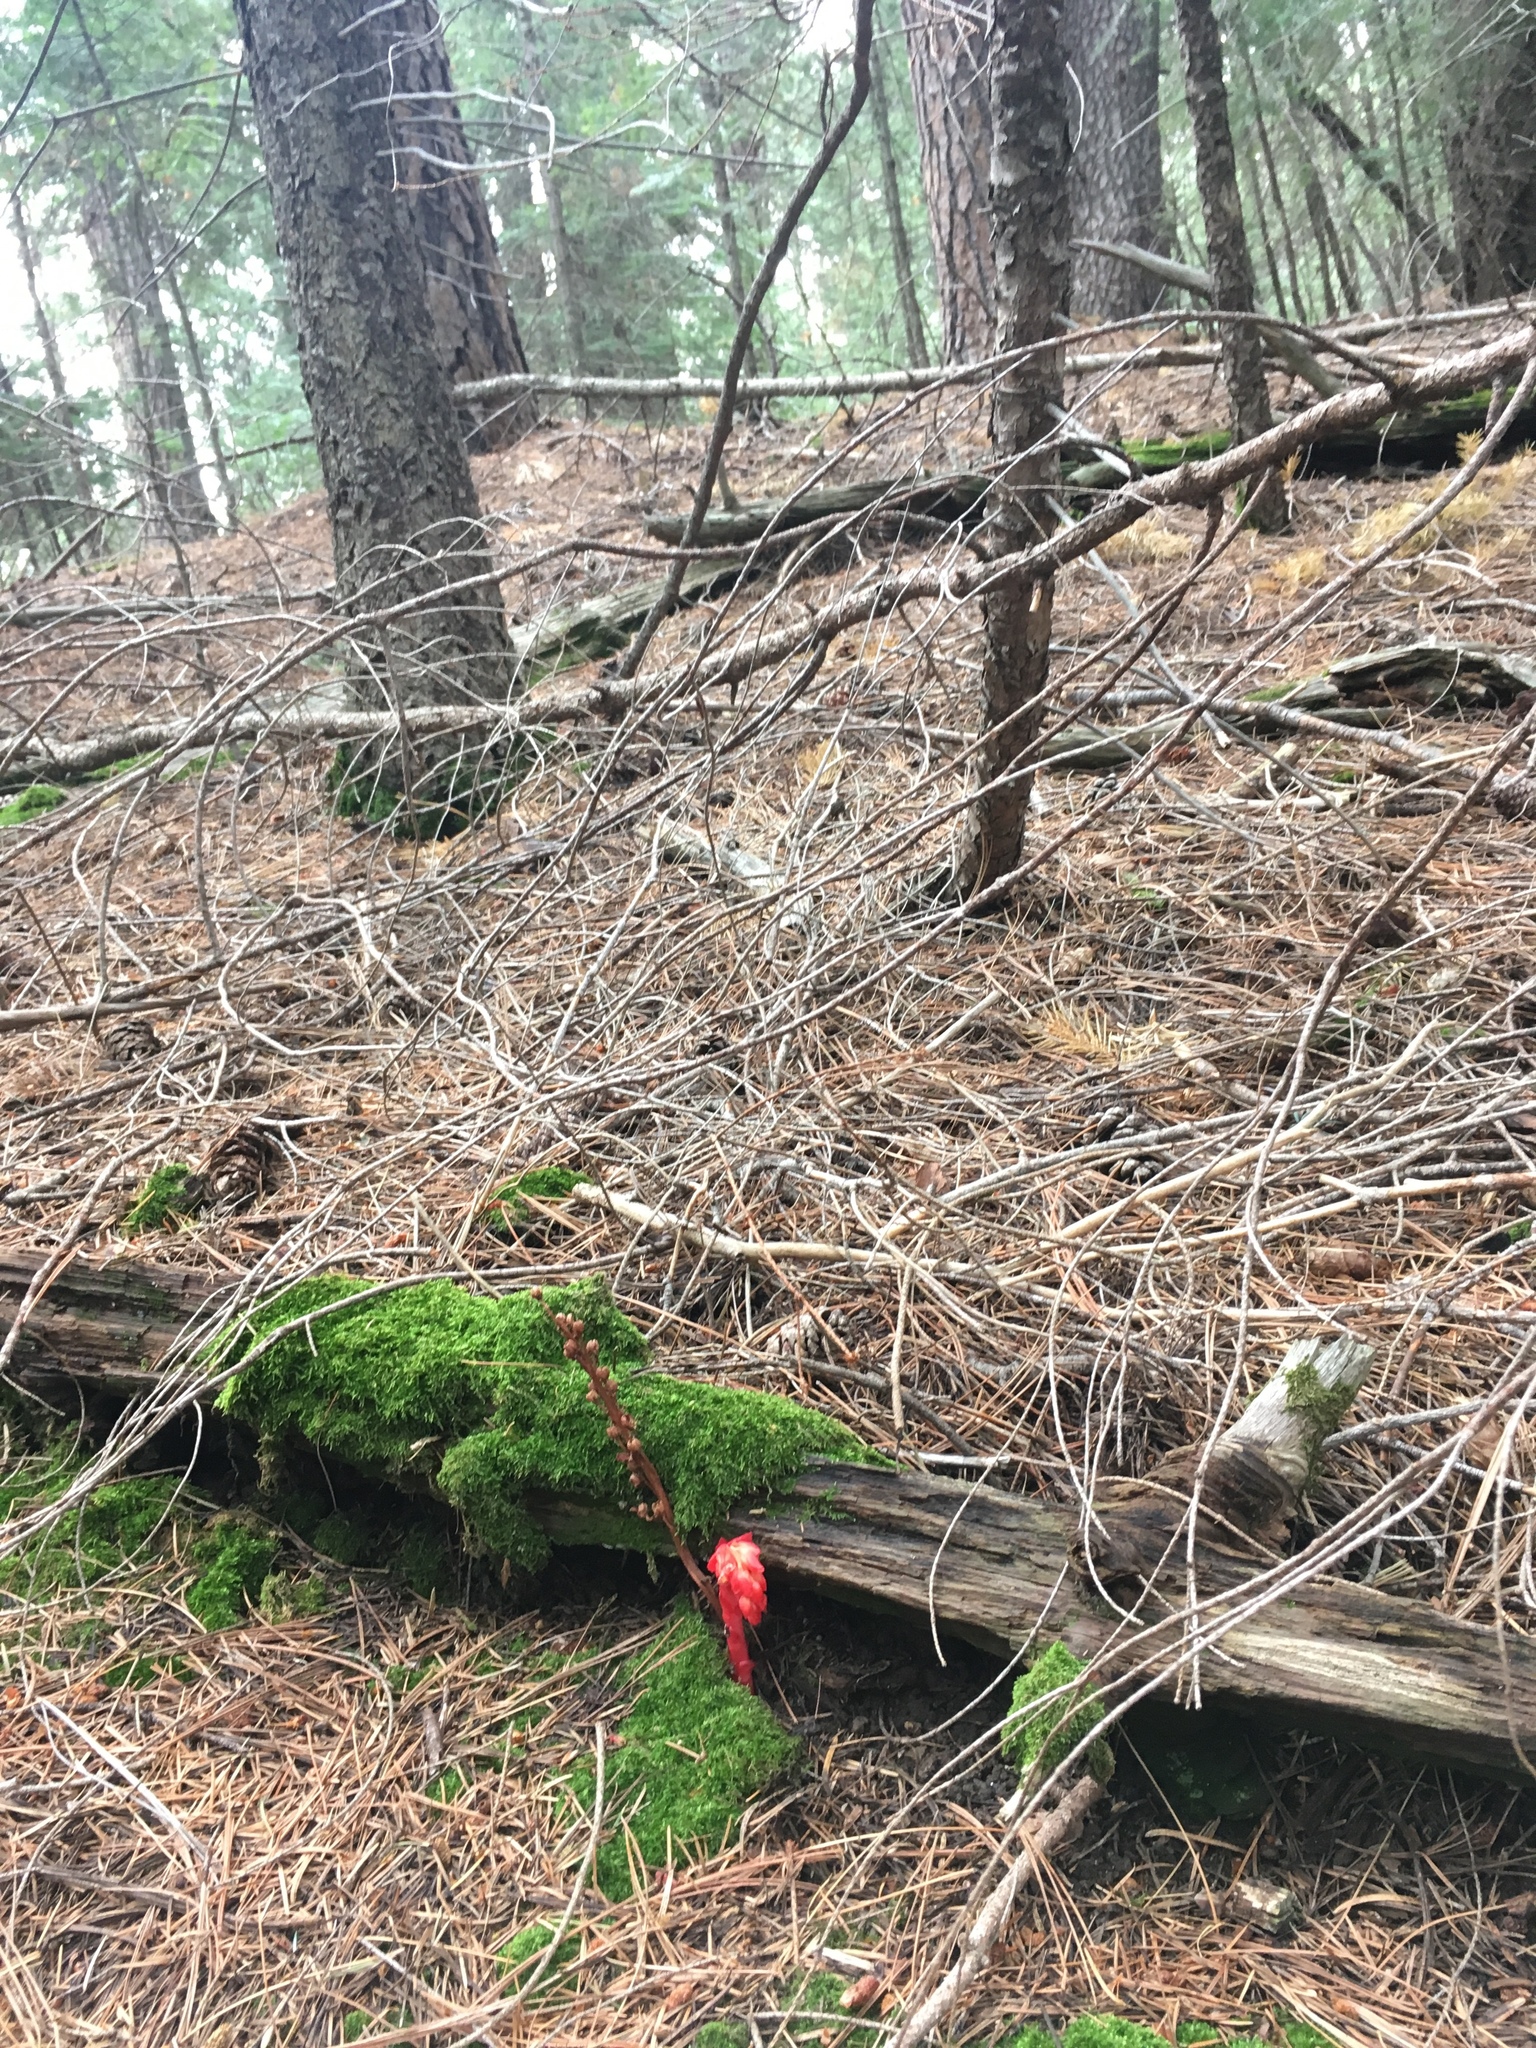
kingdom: Plantae
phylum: Tracheophyta
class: Magnoliopsida
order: Ericales
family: Ericaceae
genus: Hypopitys
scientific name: Hypopitys monotropa
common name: Yellow bird's-nest
